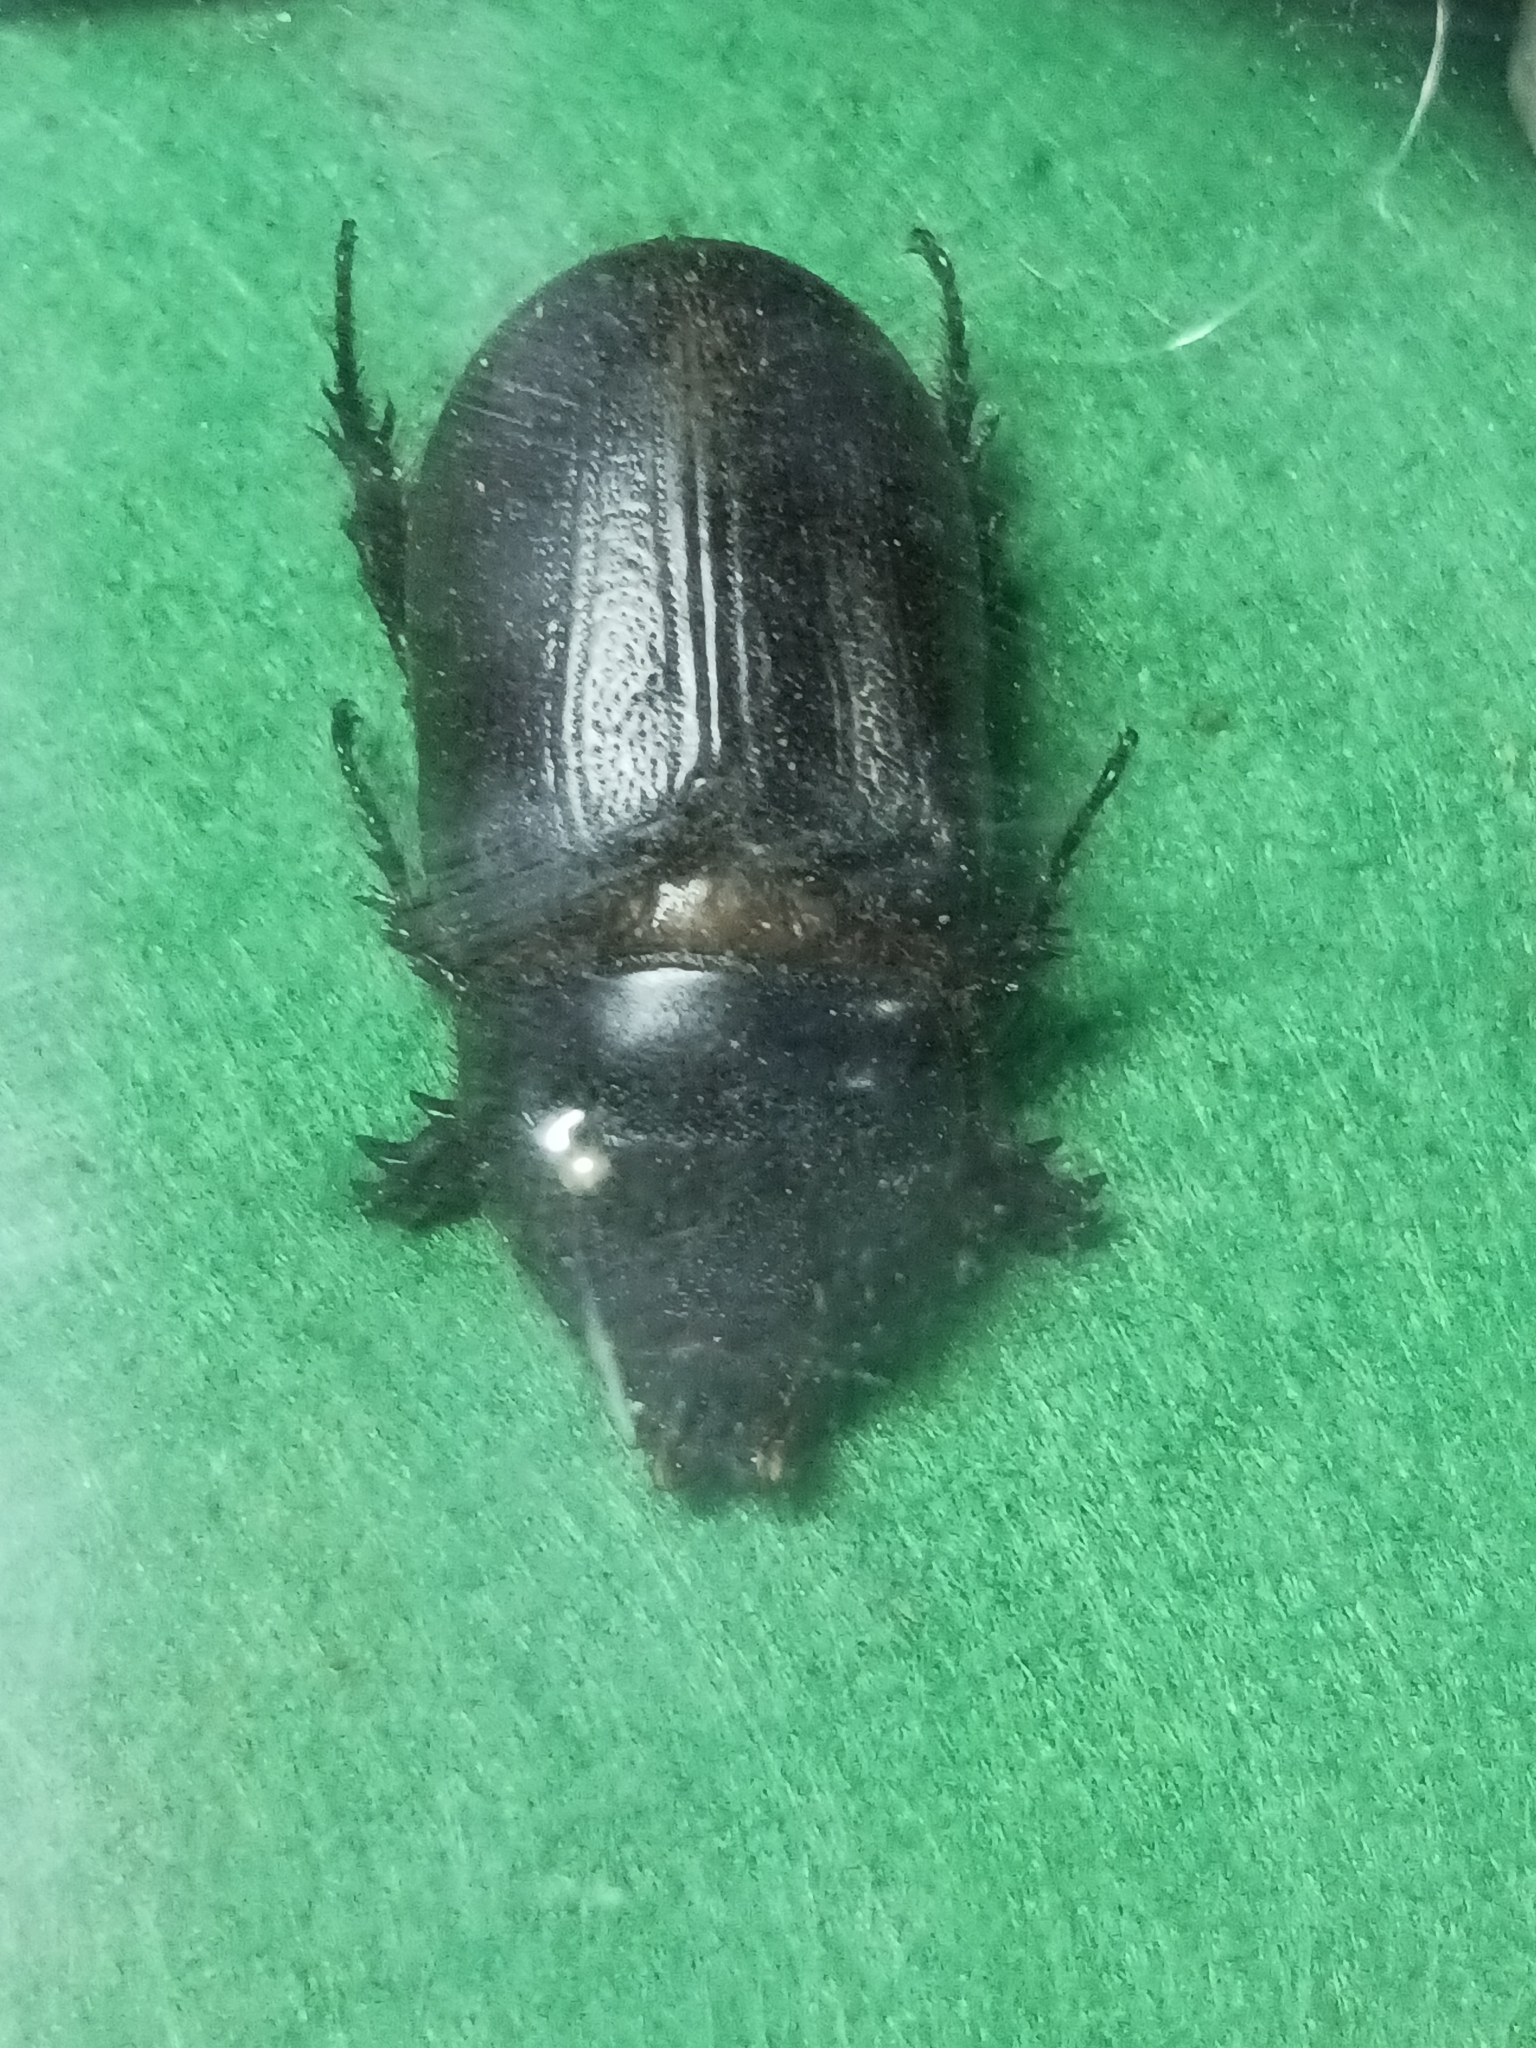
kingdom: Animalia
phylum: Arthropoda
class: Insecta
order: Coleoptera
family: Scarabaeidae
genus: Oryctes
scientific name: Oryctes rhinoceros
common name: Coconut rhinoceros beetle
